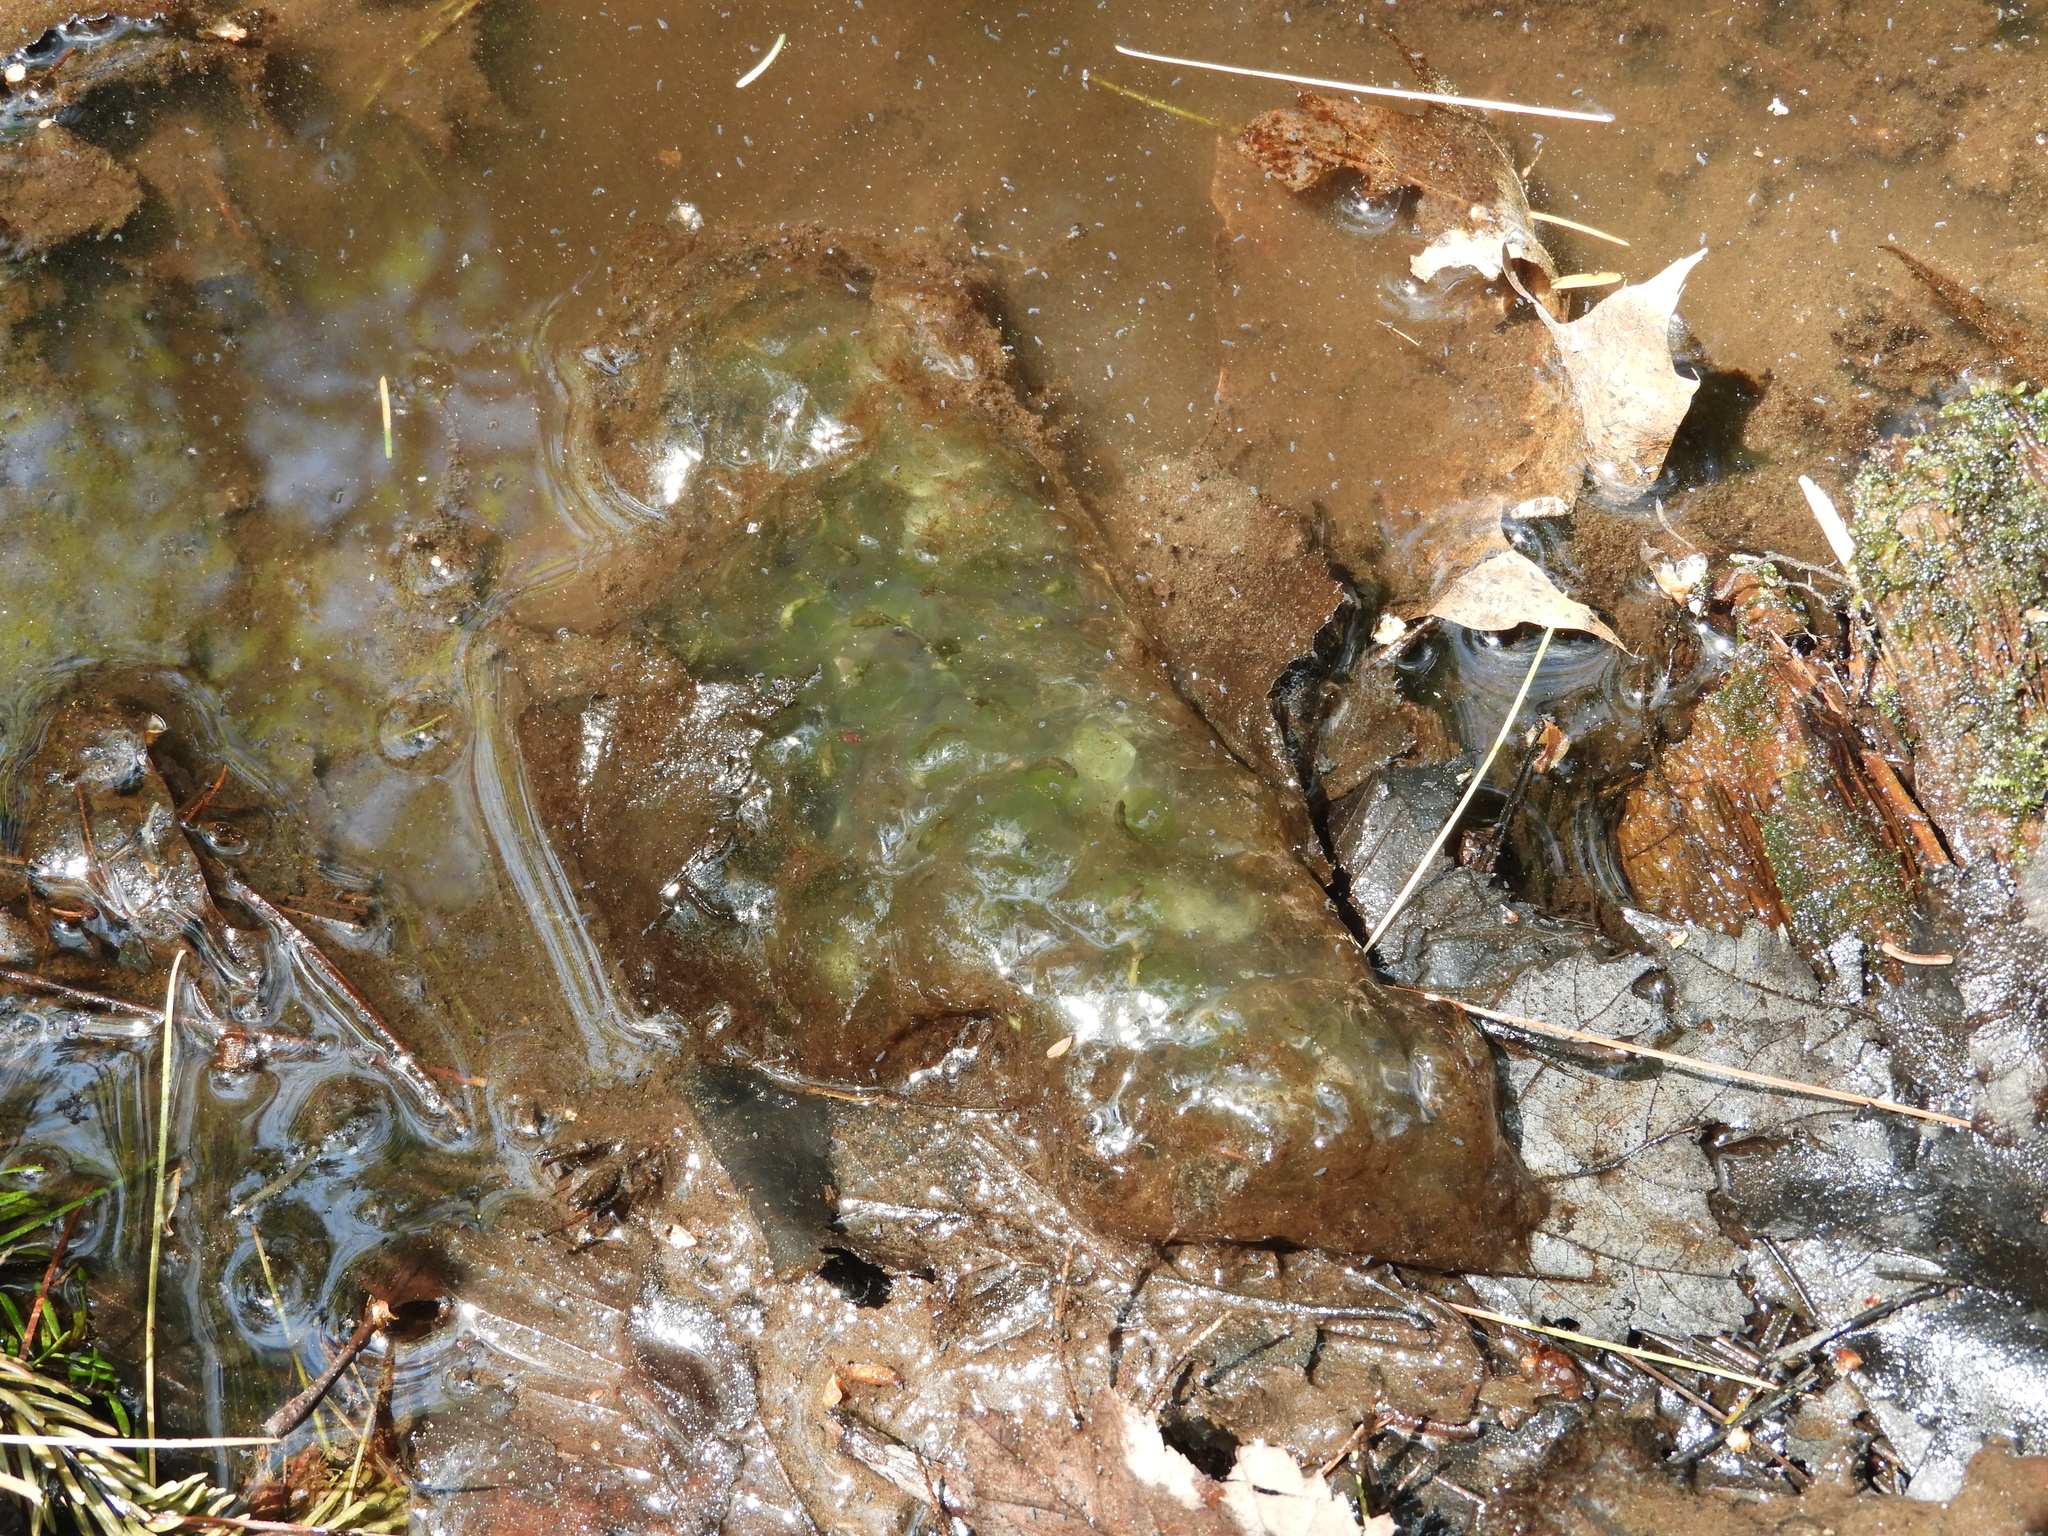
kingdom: Animalia
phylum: Chordata
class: Amphibia
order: Caudata
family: Ambystomatidae
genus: Ambystoma
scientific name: Ambystoma maculatum
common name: Spotted salamander
